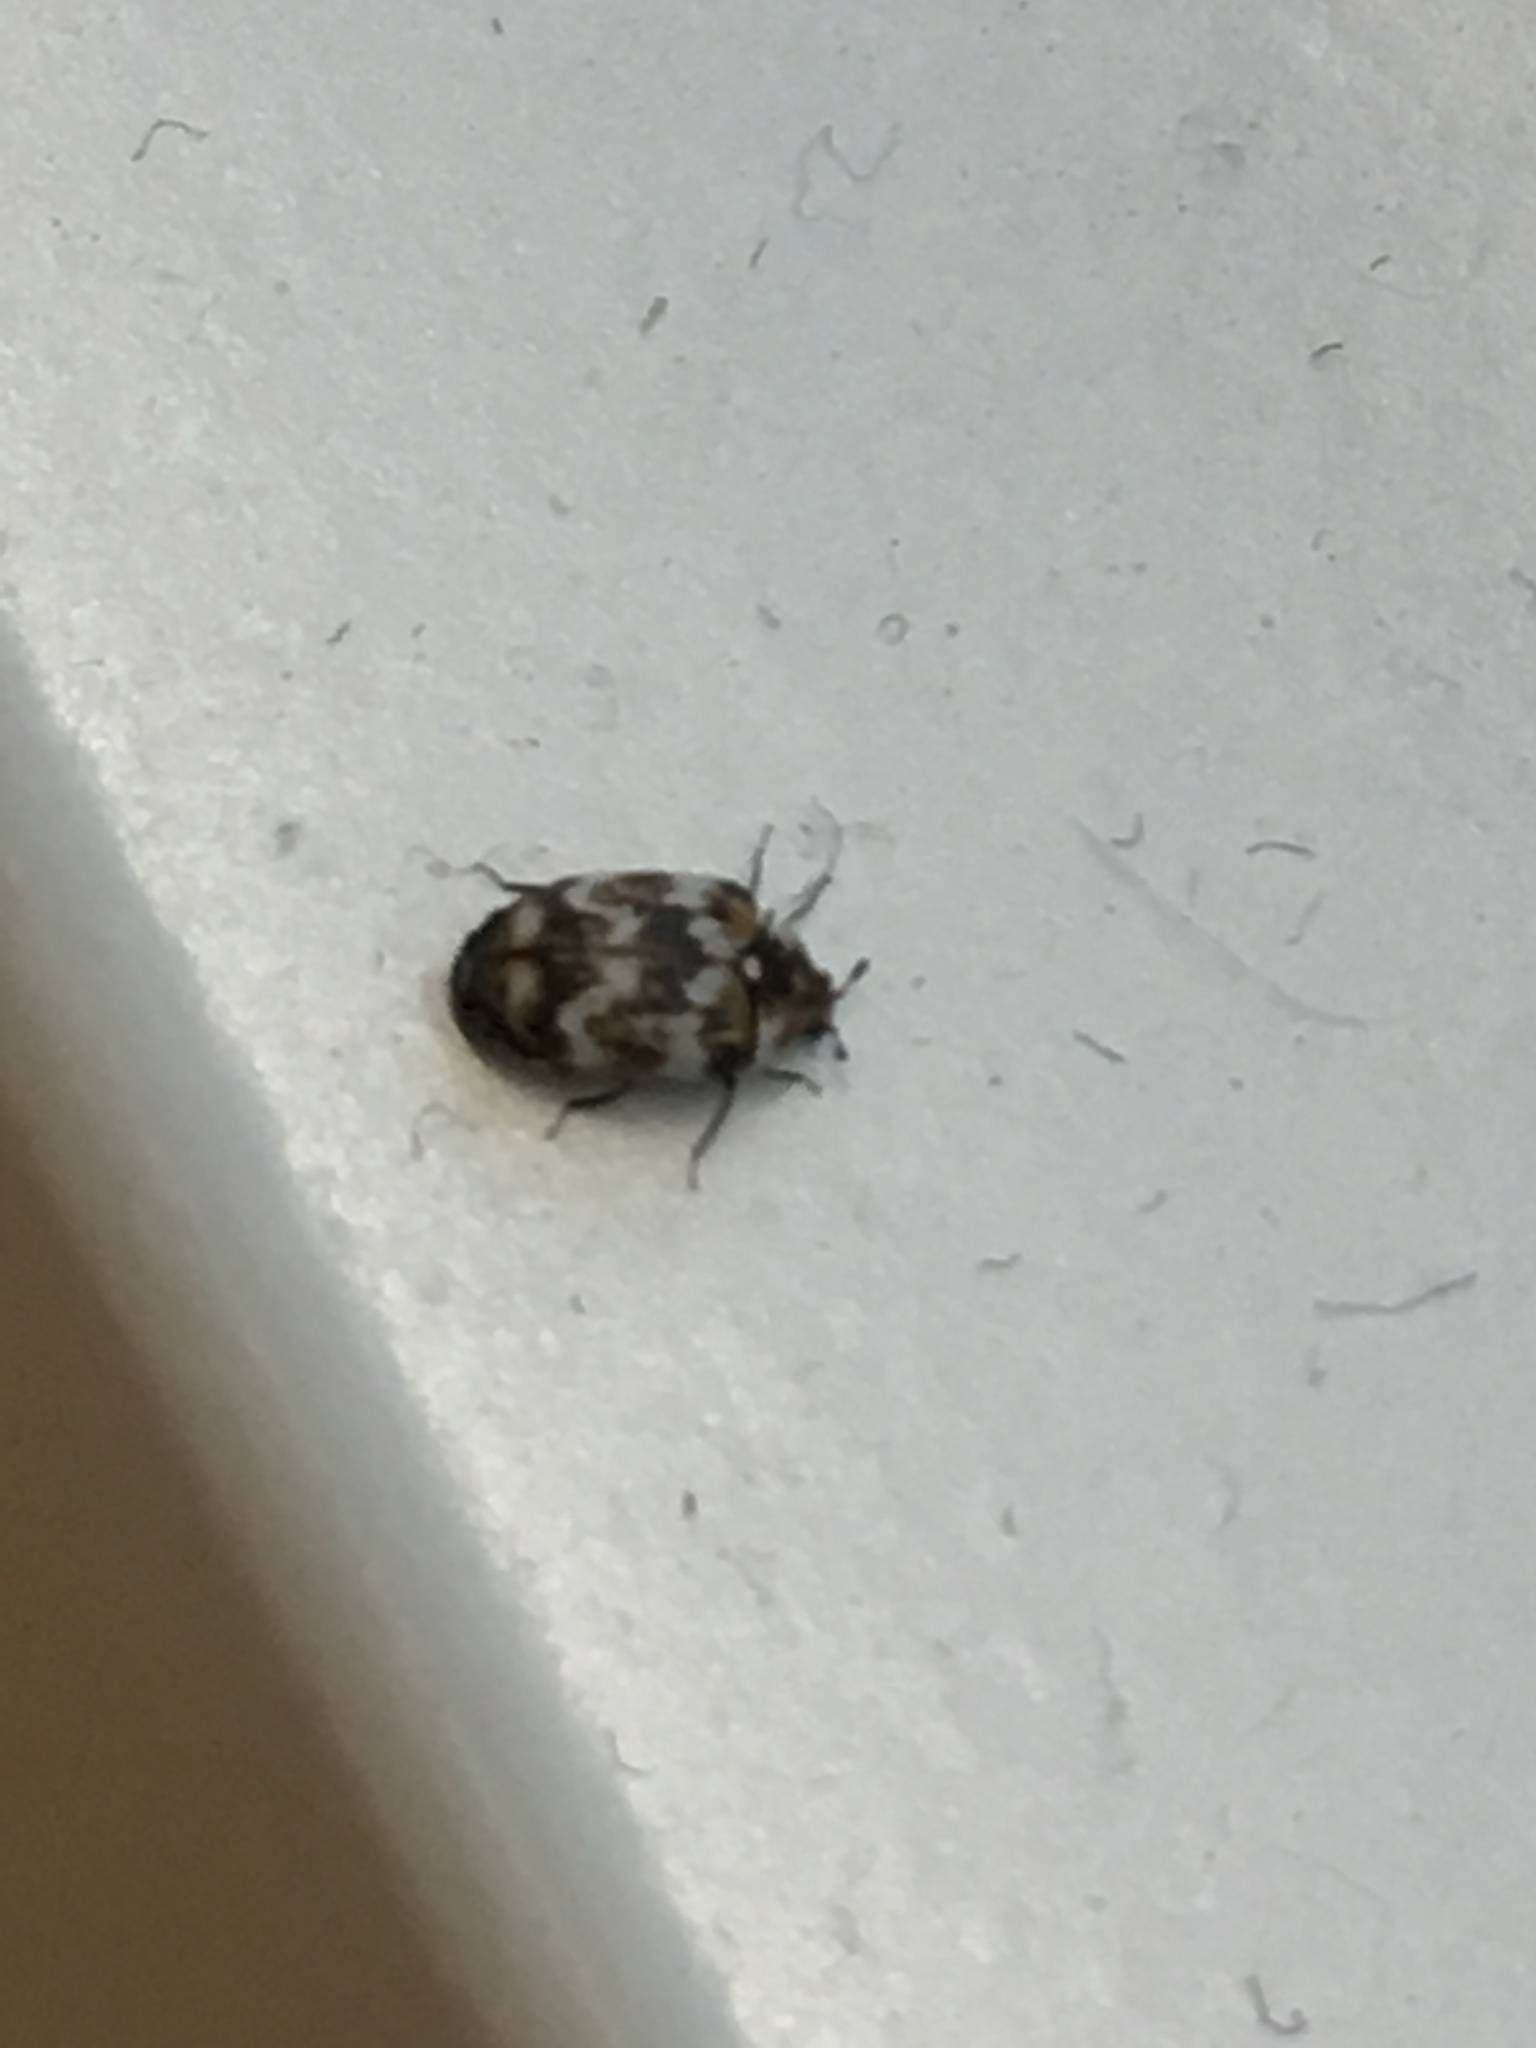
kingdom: Animalia
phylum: Arthropoda
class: Insecta
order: Coleoptera
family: Dermestidae
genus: Anthrenus
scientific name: Anthrenus verbasci
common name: Varied carpet beetle
